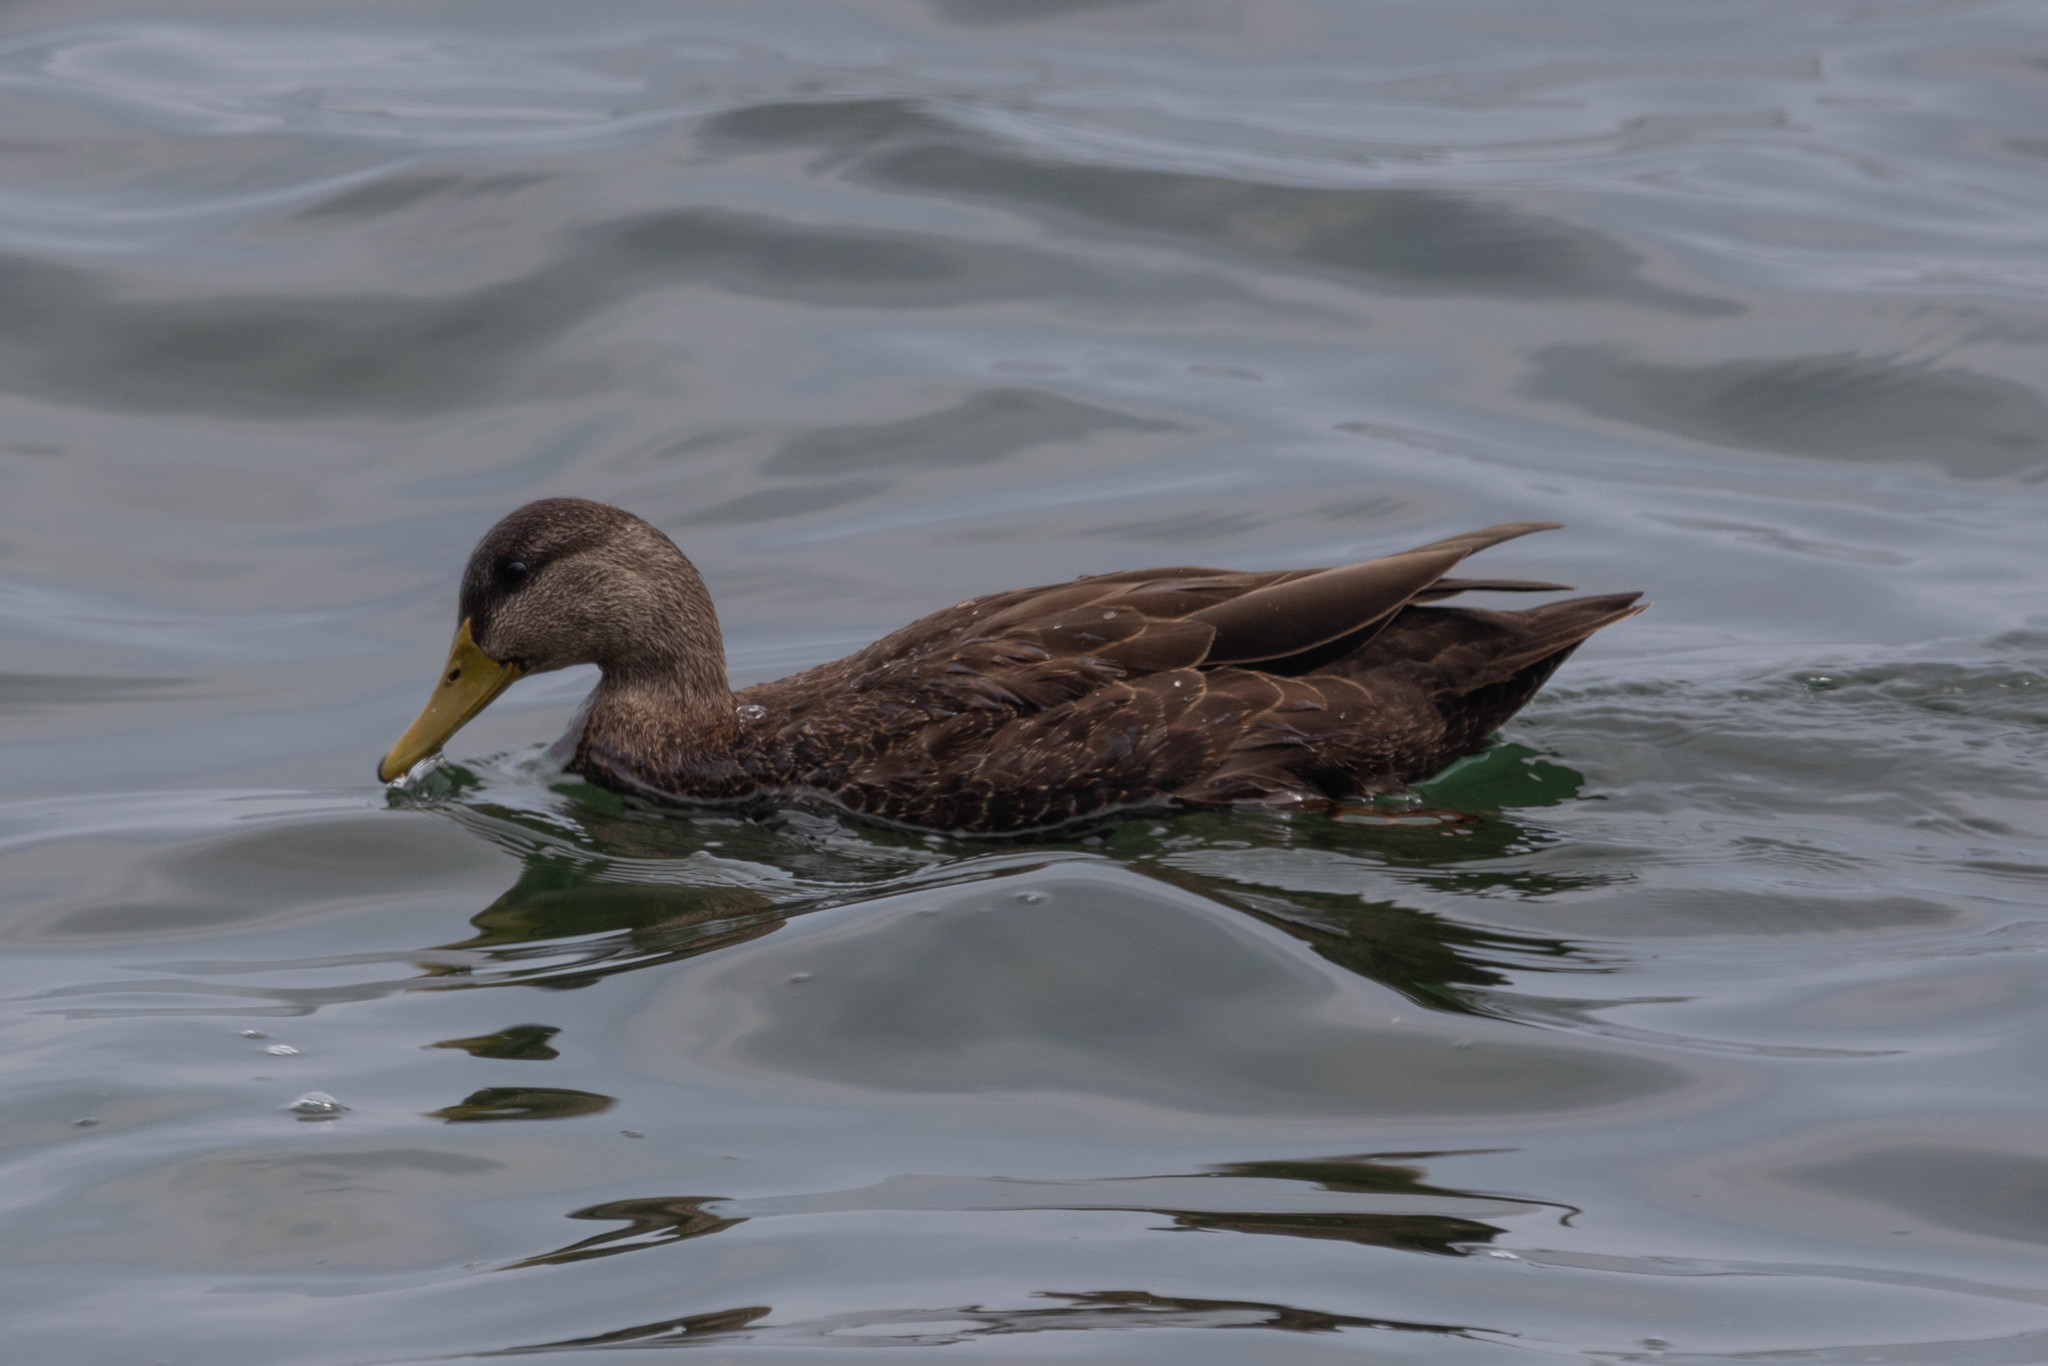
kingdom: Animalia
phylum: Chordata
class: Aves
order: Anseriformes
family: Anatidae
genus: Anas
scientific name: Anas rubripes
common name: American black duck
